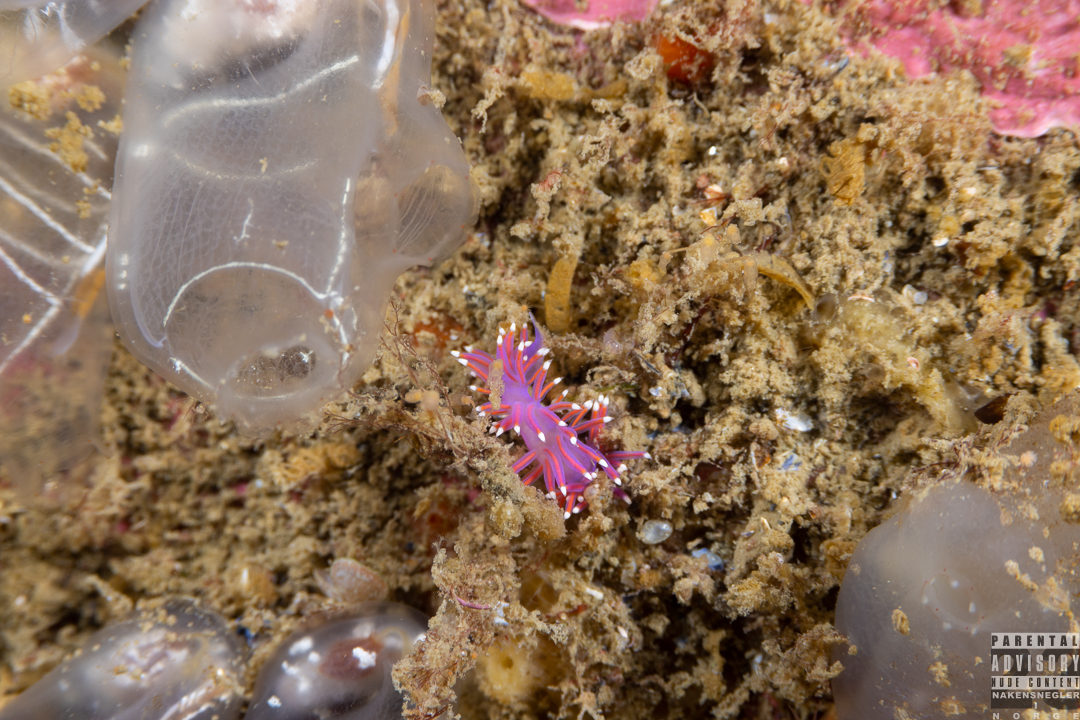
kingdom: Animalia
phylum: Mollusca
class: Gastropoda
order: Nudibranchia
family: Flabellinidae
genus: Edmundsella
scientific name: Edmundsella pedata
